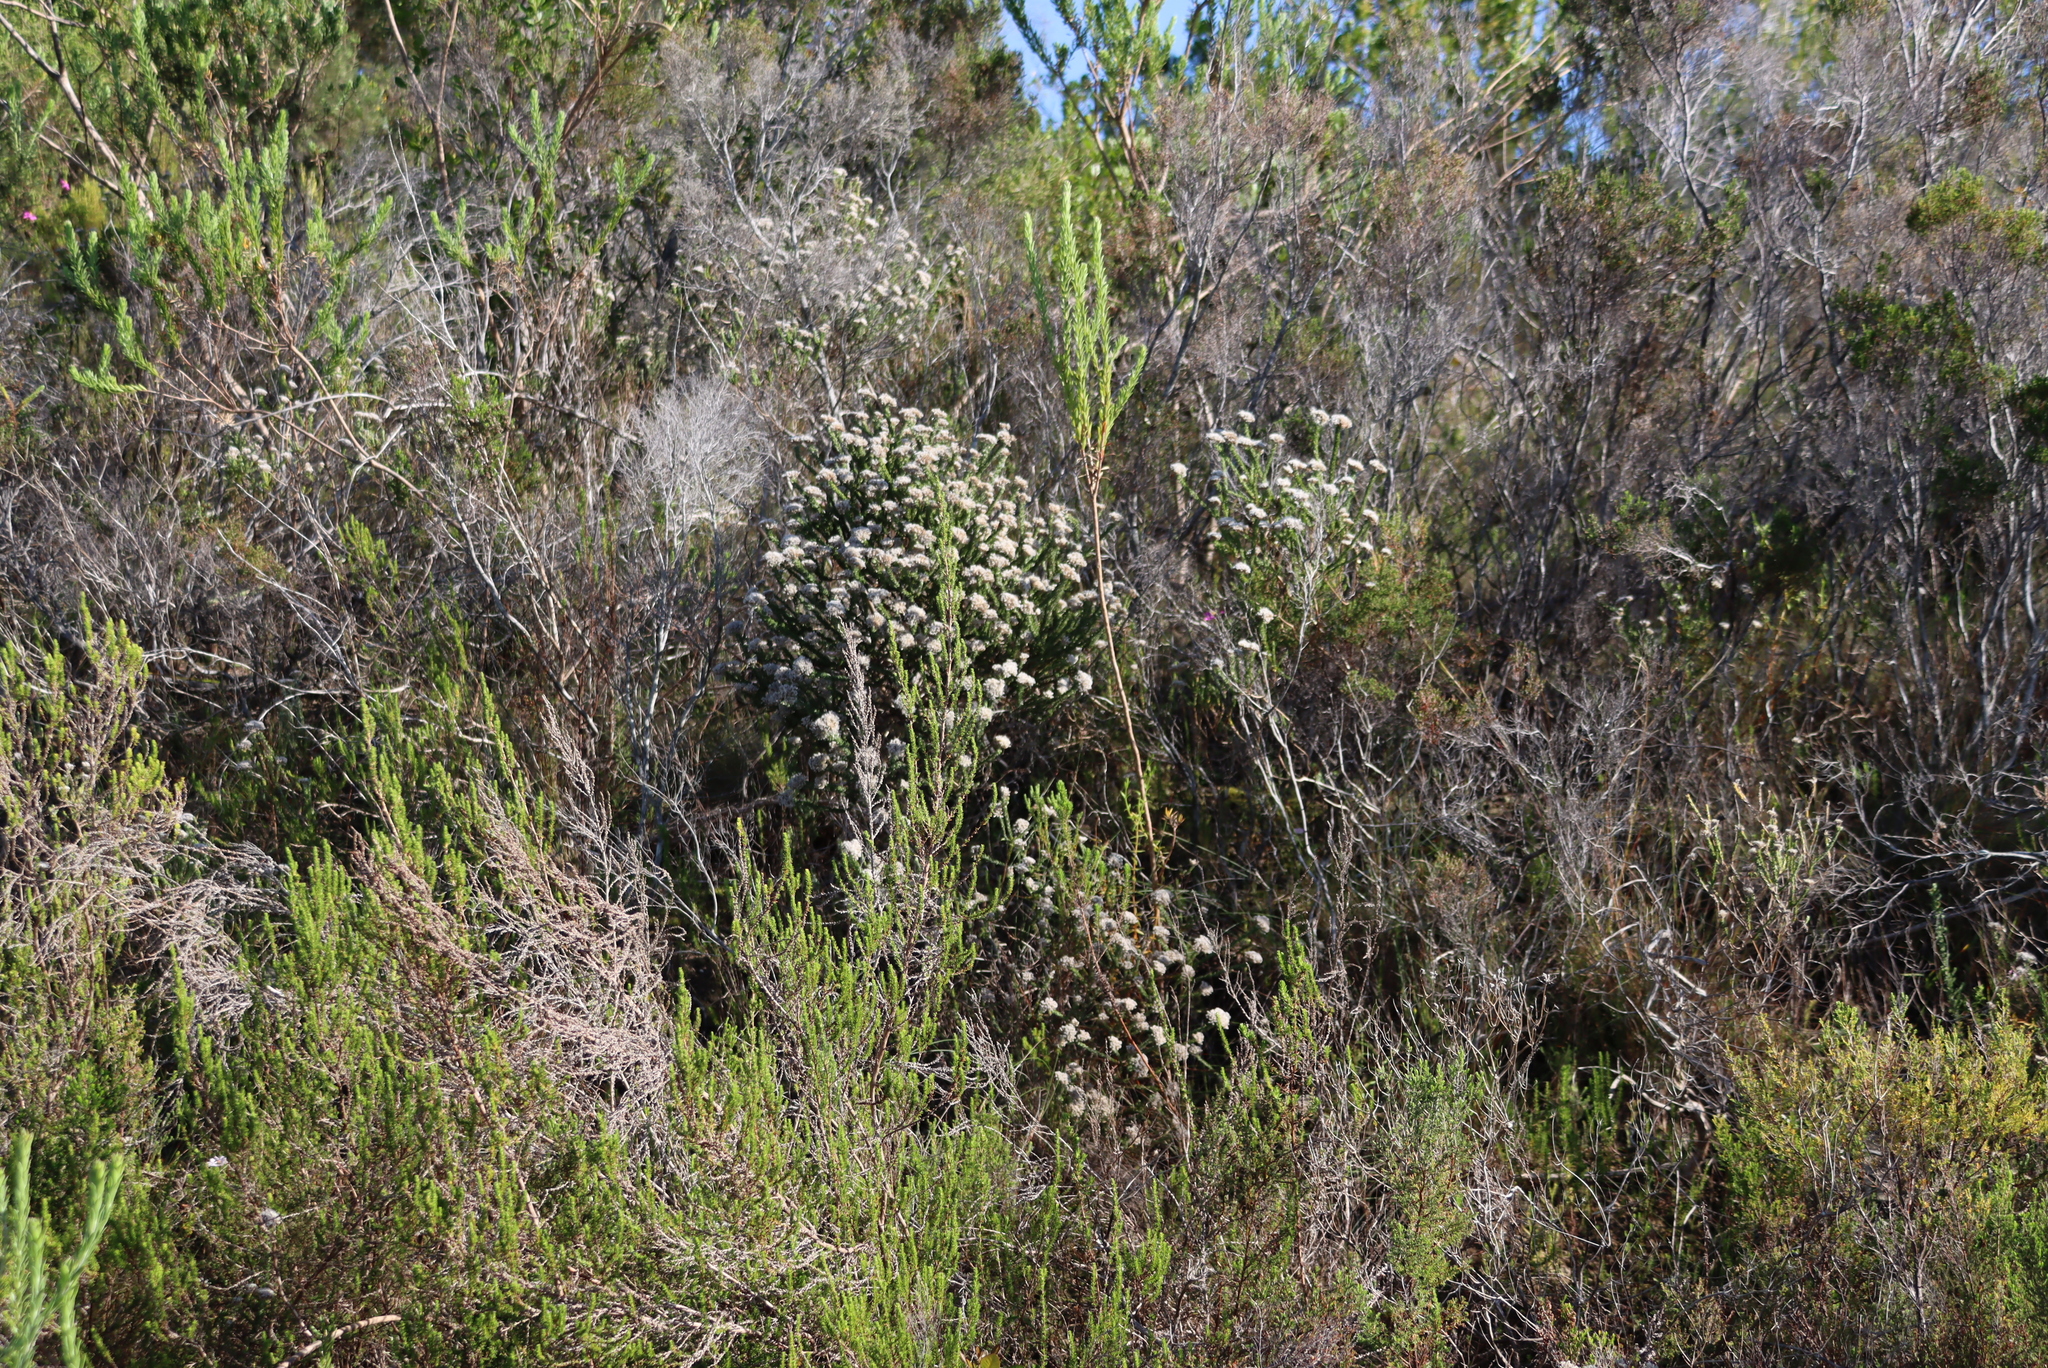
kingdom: Plantae
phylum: Tracheophyta
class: Magnoliopsida
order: Asterales
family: Asteraceae
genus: Metalasia
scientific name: Metalasia pungens
